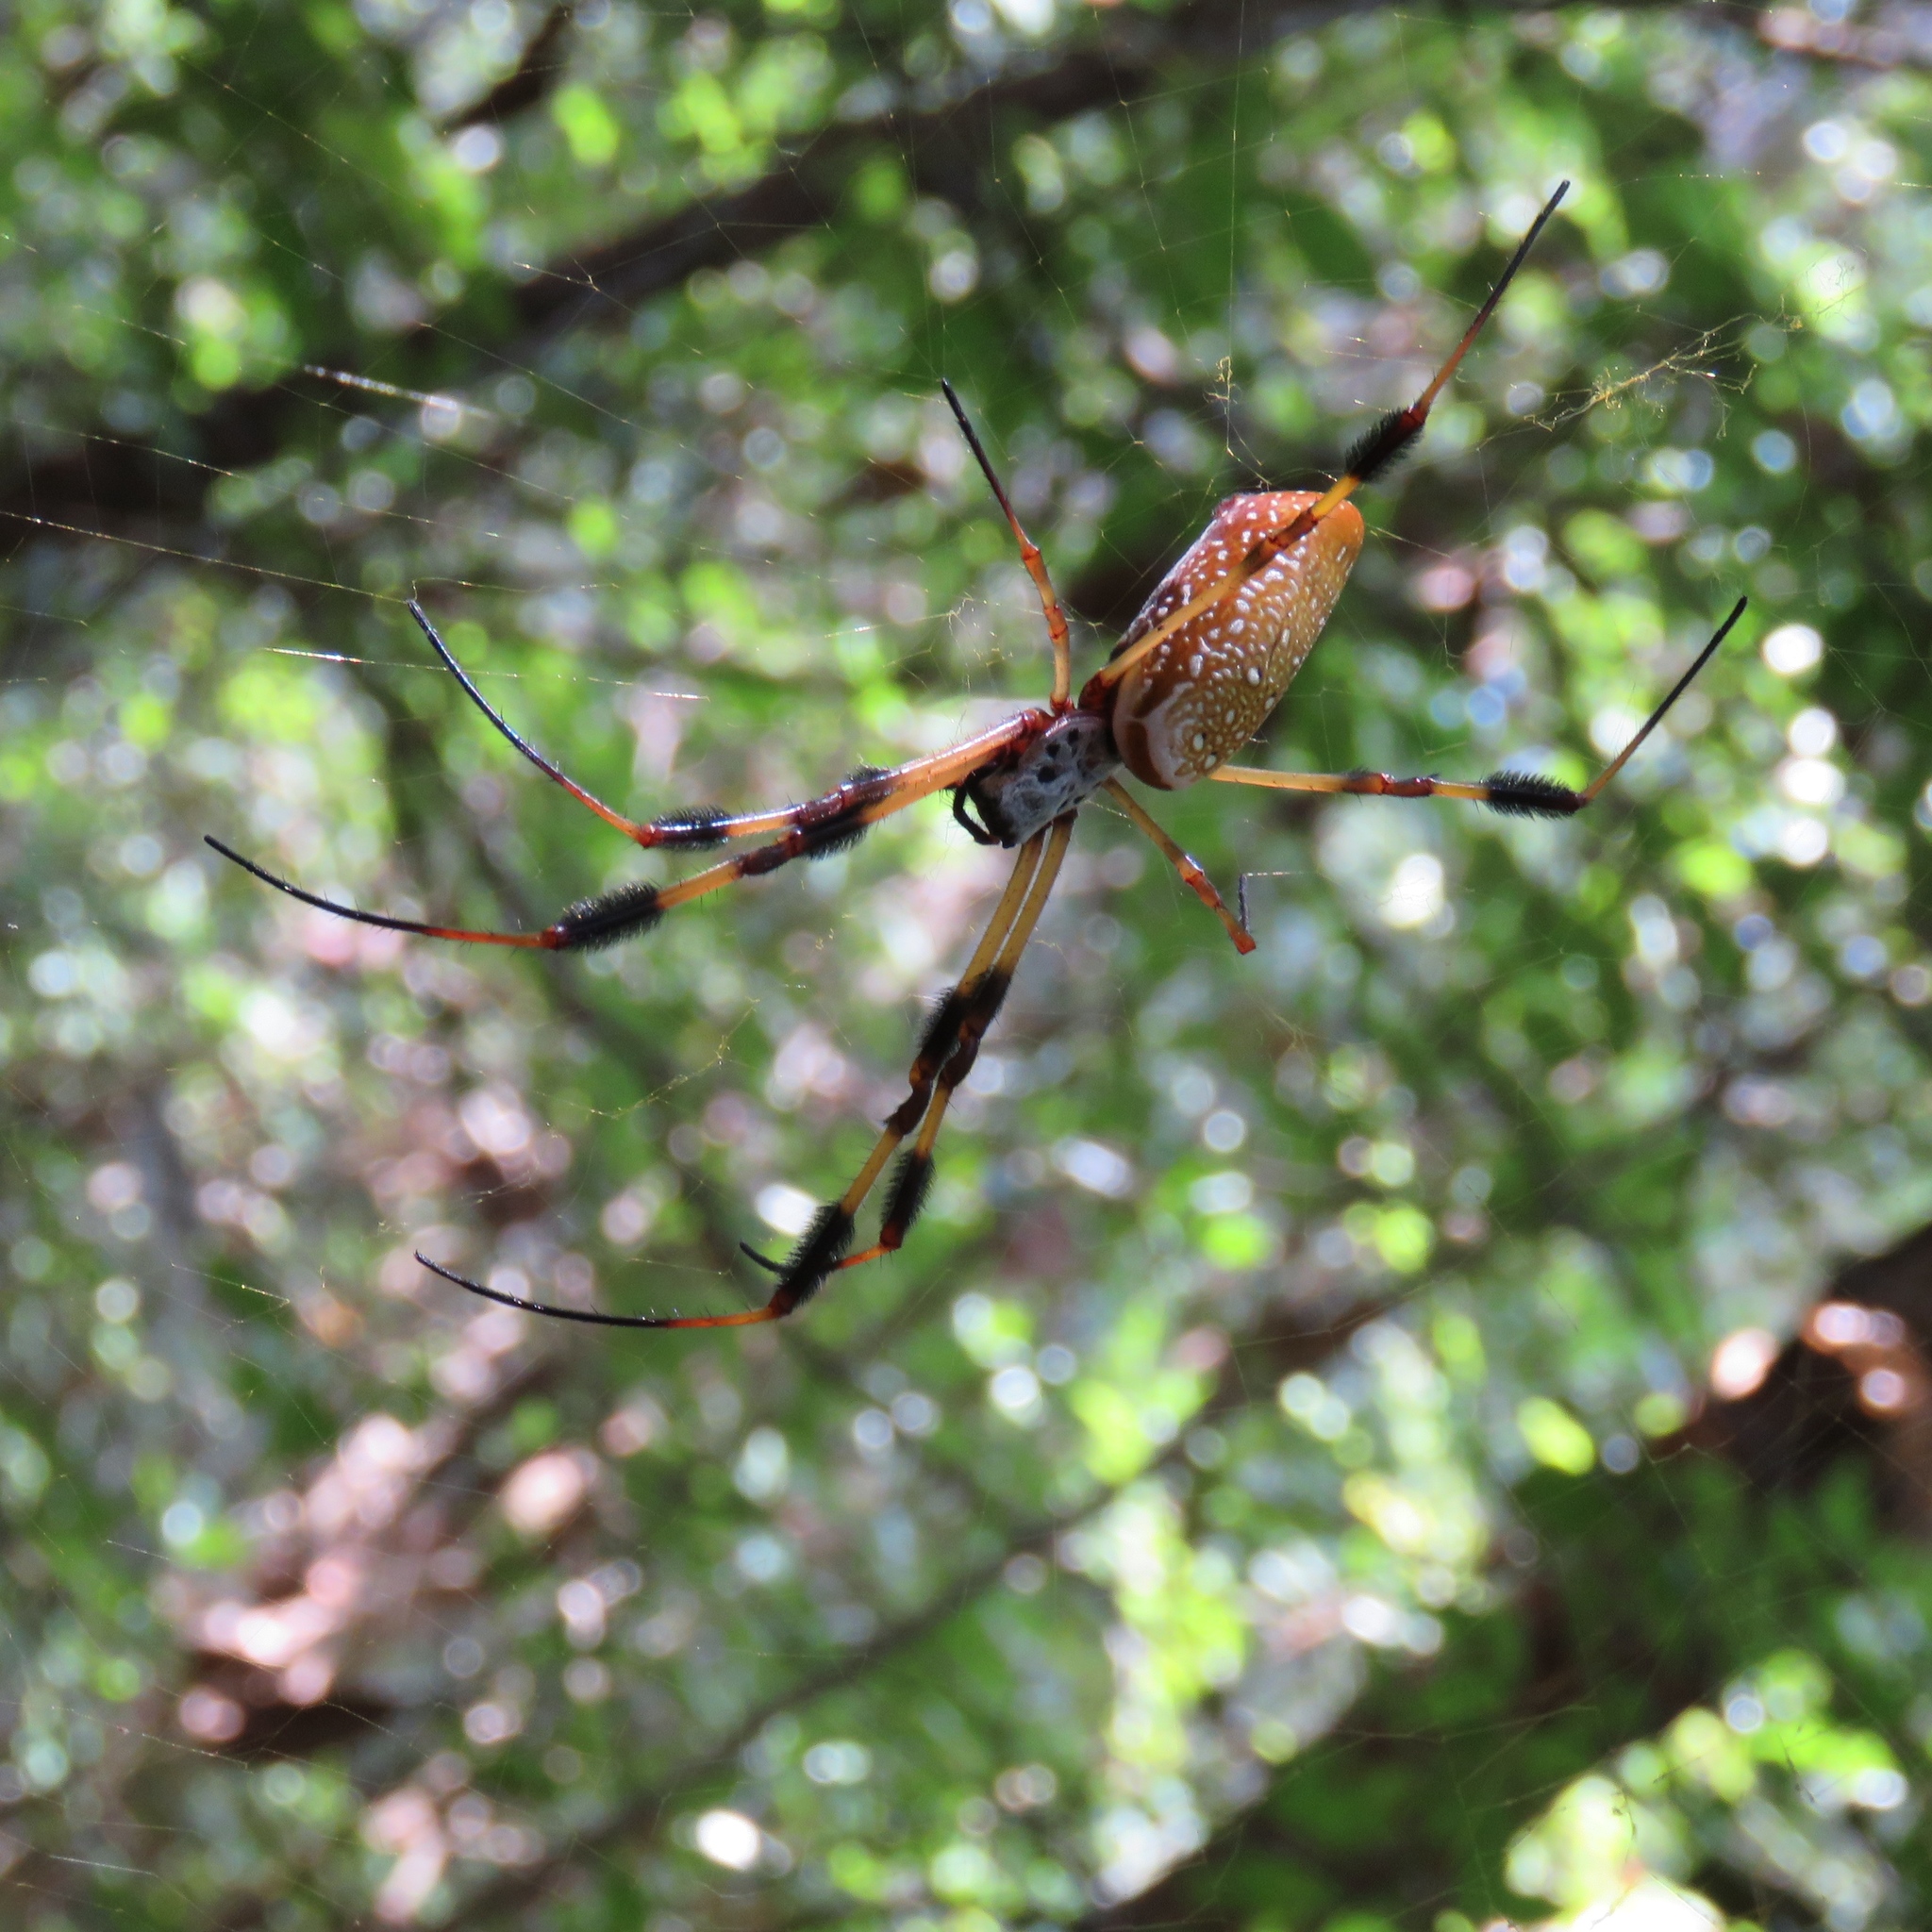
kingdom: Animalia
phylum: Arthropoda
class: Arachnida
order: Araneae
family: Araneidae
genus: Trichonephila
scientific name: Trichonephila clavipes
